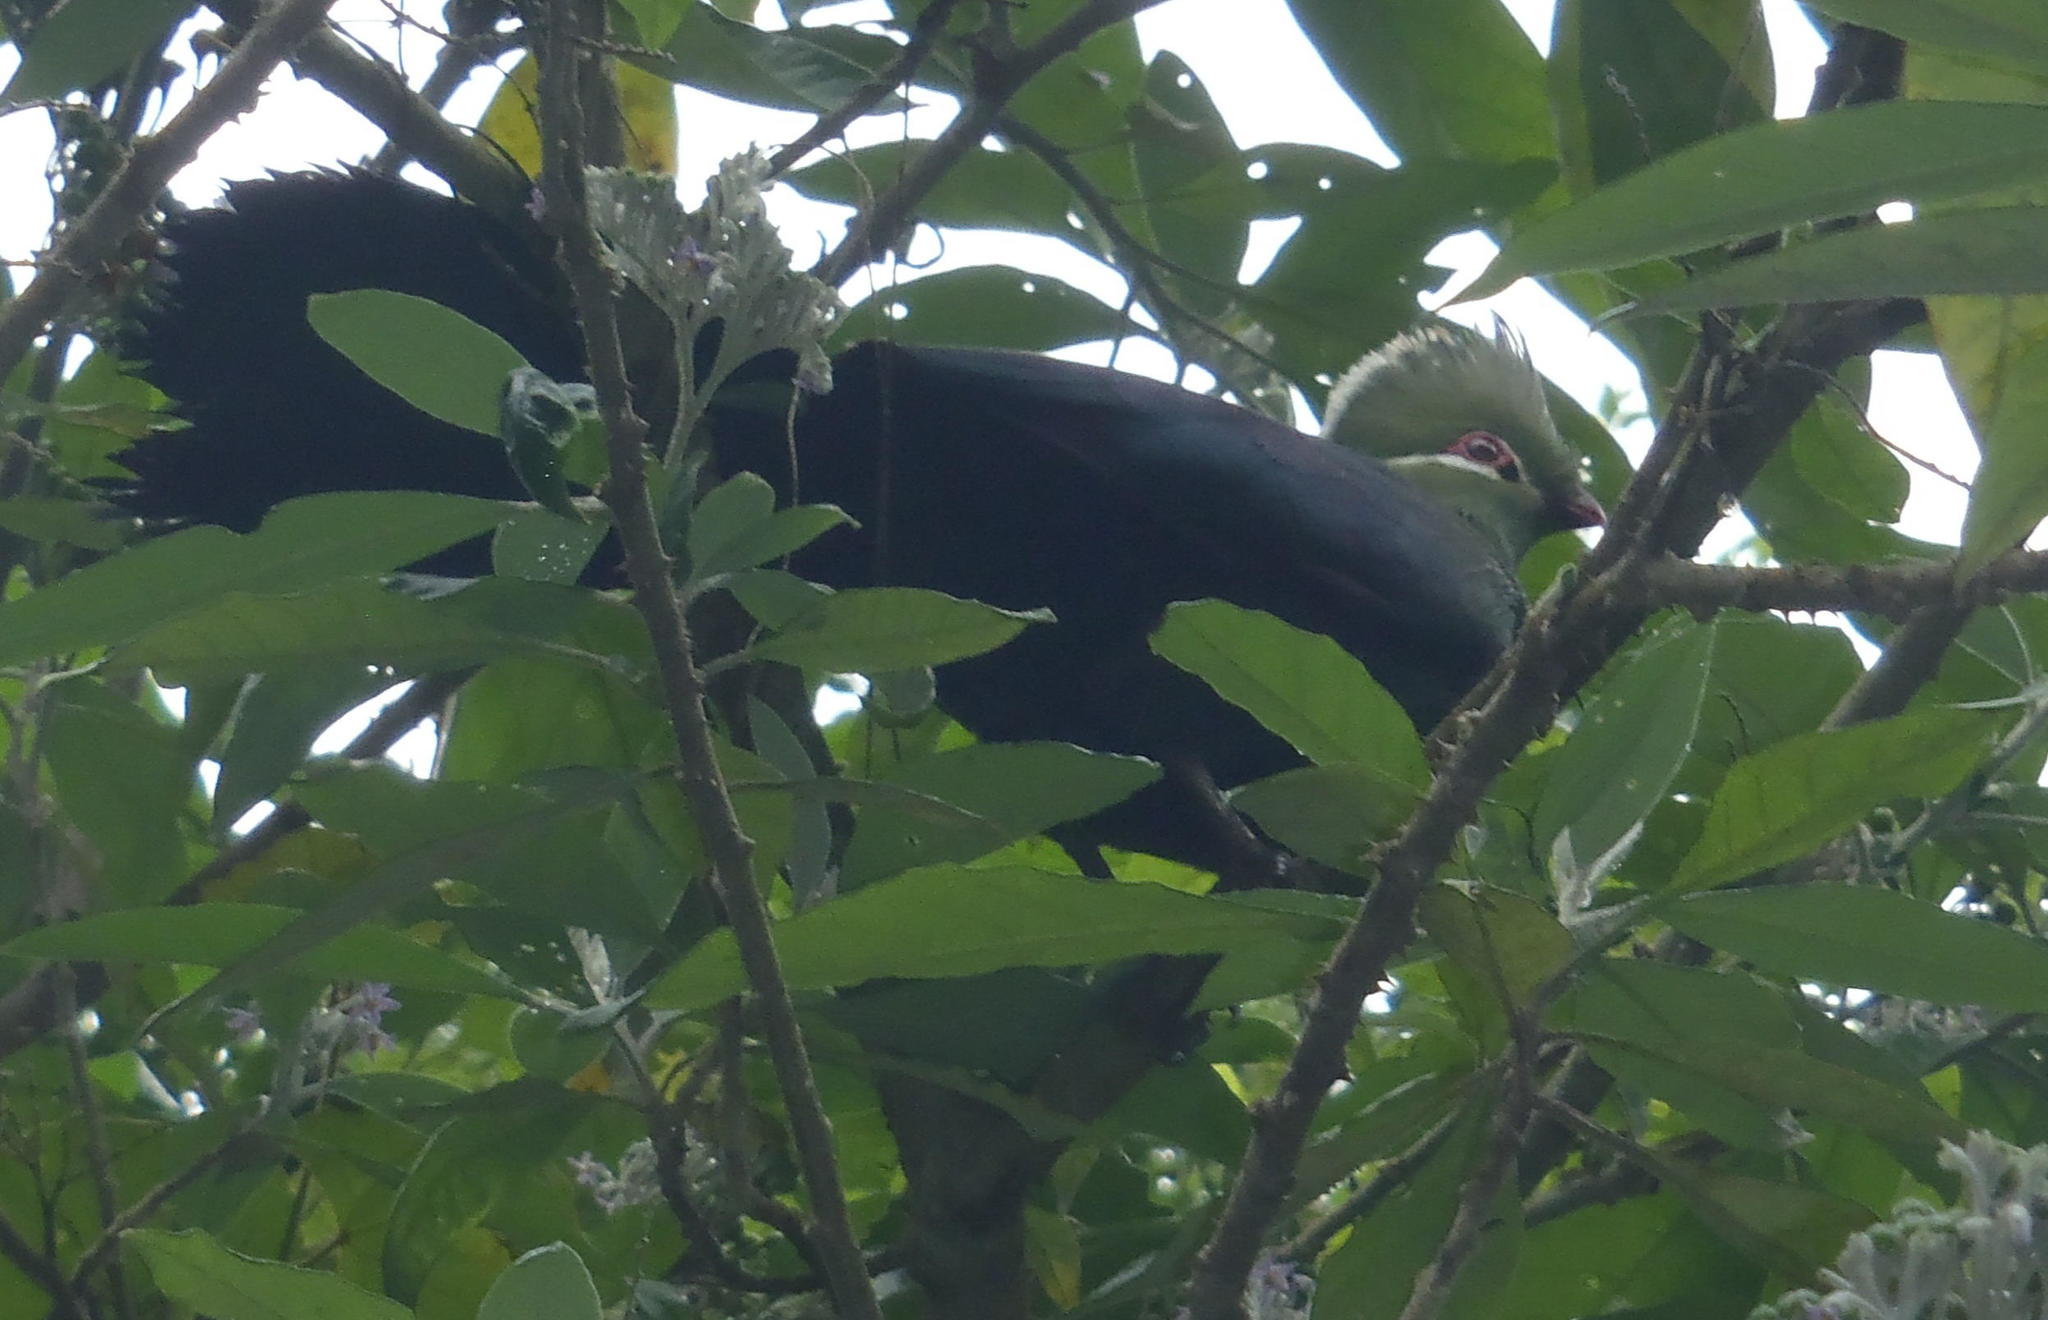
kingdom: Animalia
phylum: Chordata
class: Aves
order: Musophagiformes
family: Musophagidae
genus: Tauraco
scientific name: Tauraco corythaix
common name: Knysna turaco
